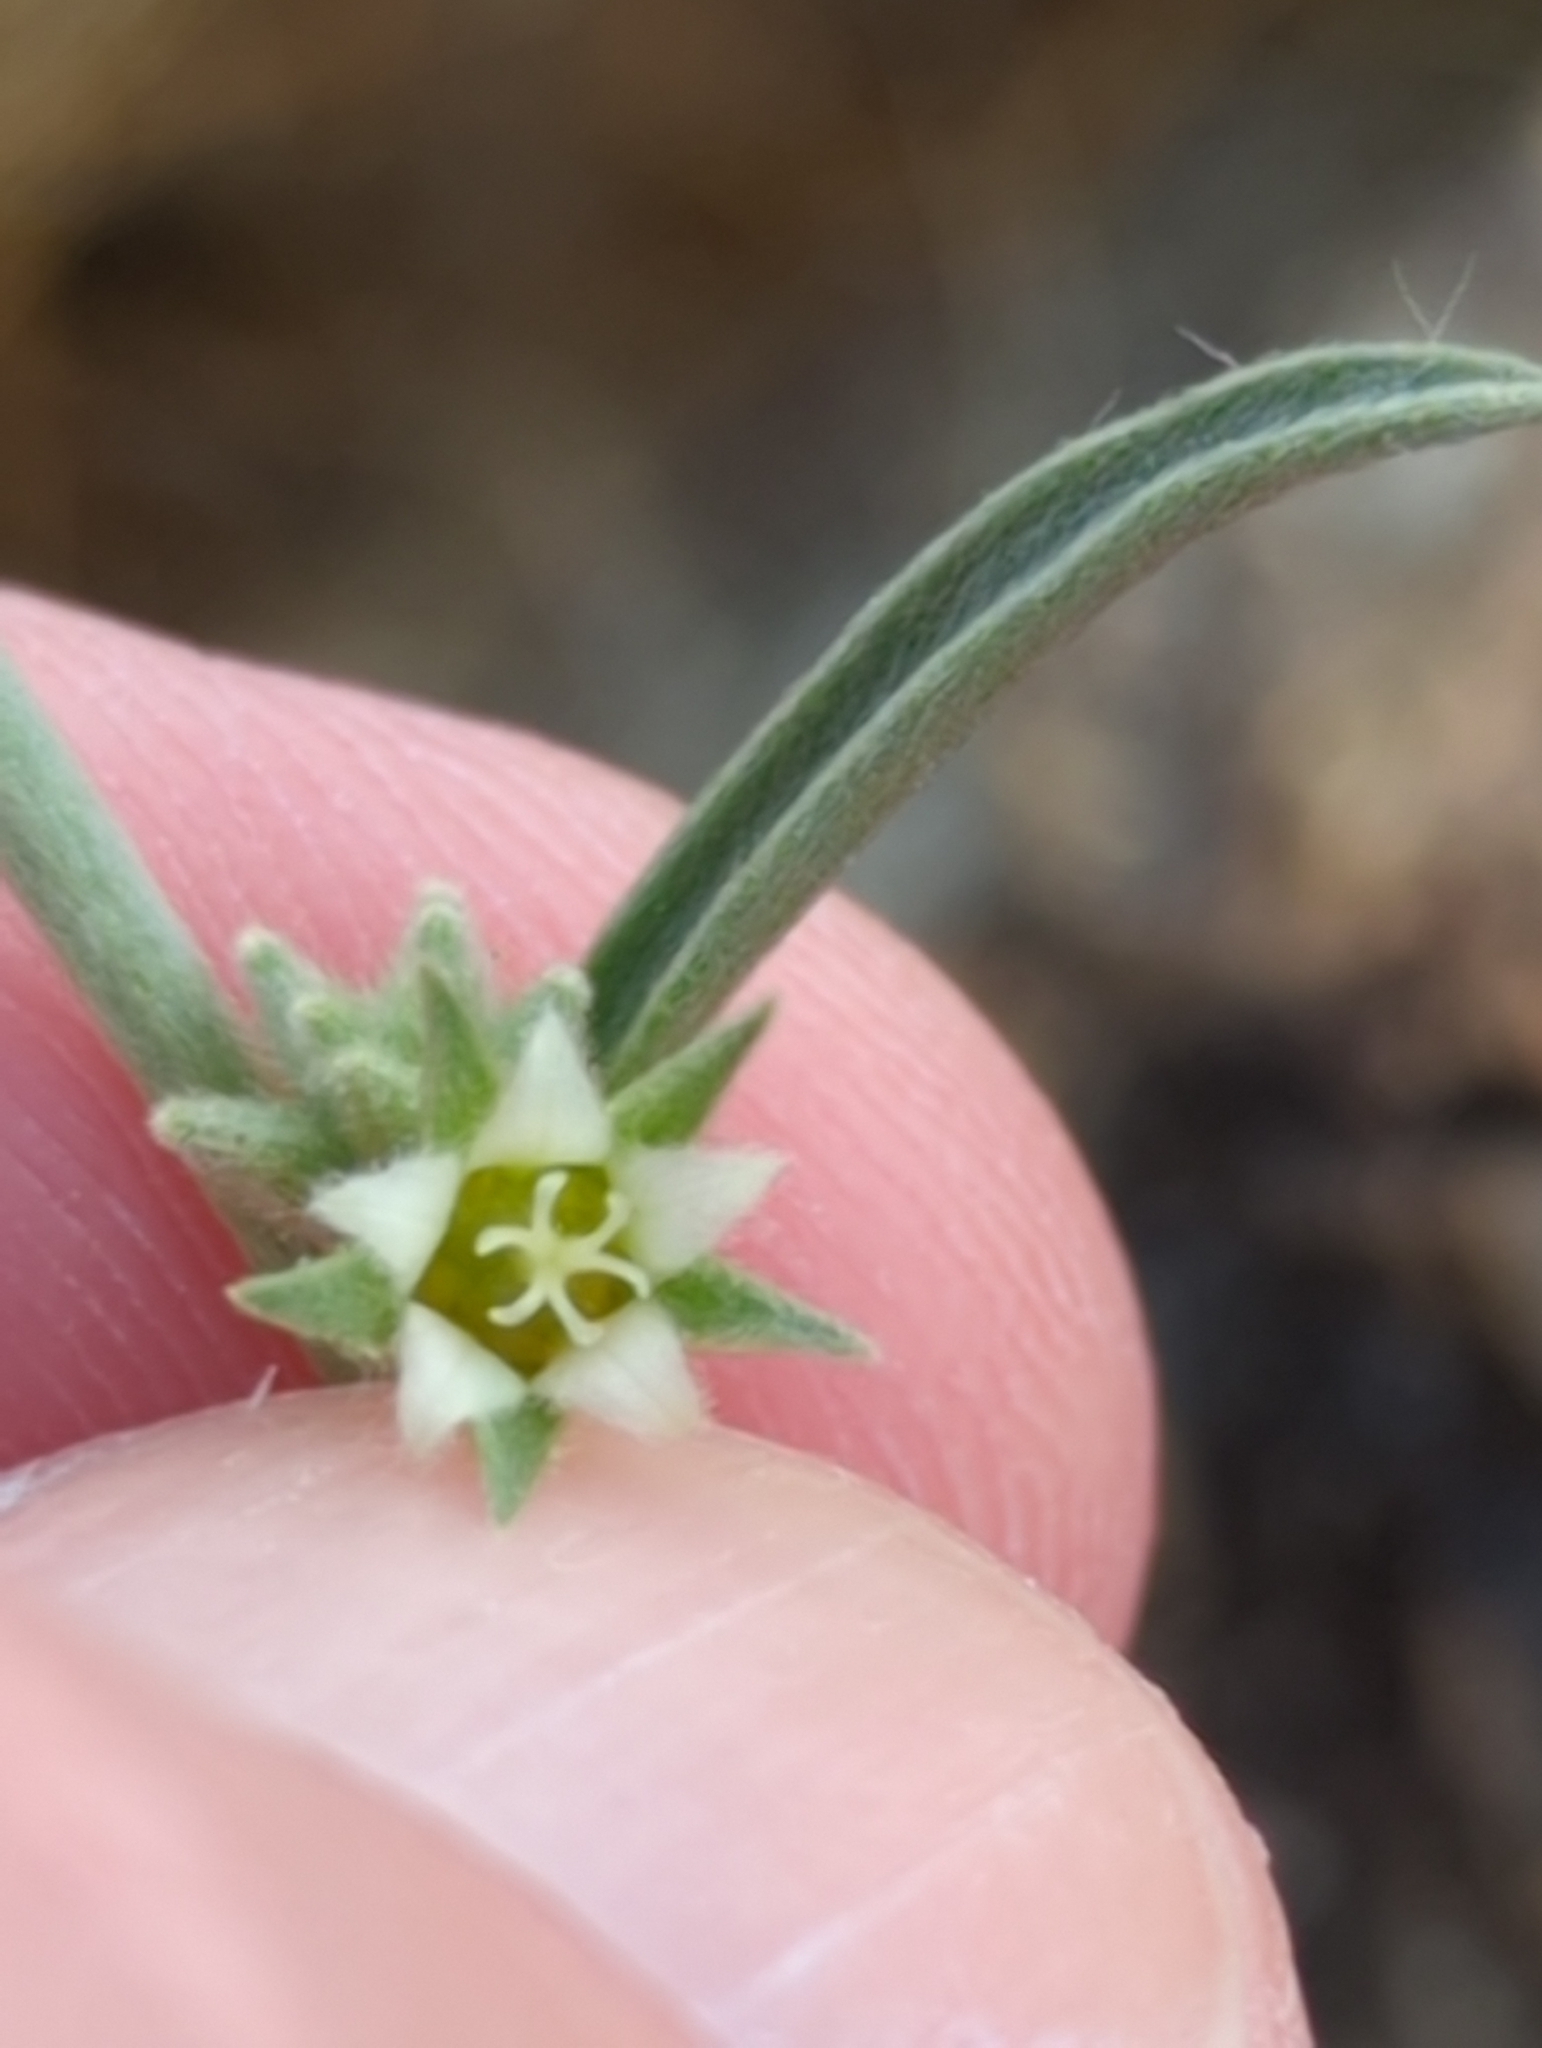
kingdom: Plantae
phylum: Tracheophyta
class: Magnoliopsida
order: Malpighiales
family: Euphorbiaceae
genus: Ditaxis
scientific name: Ditaxis lanceolata
